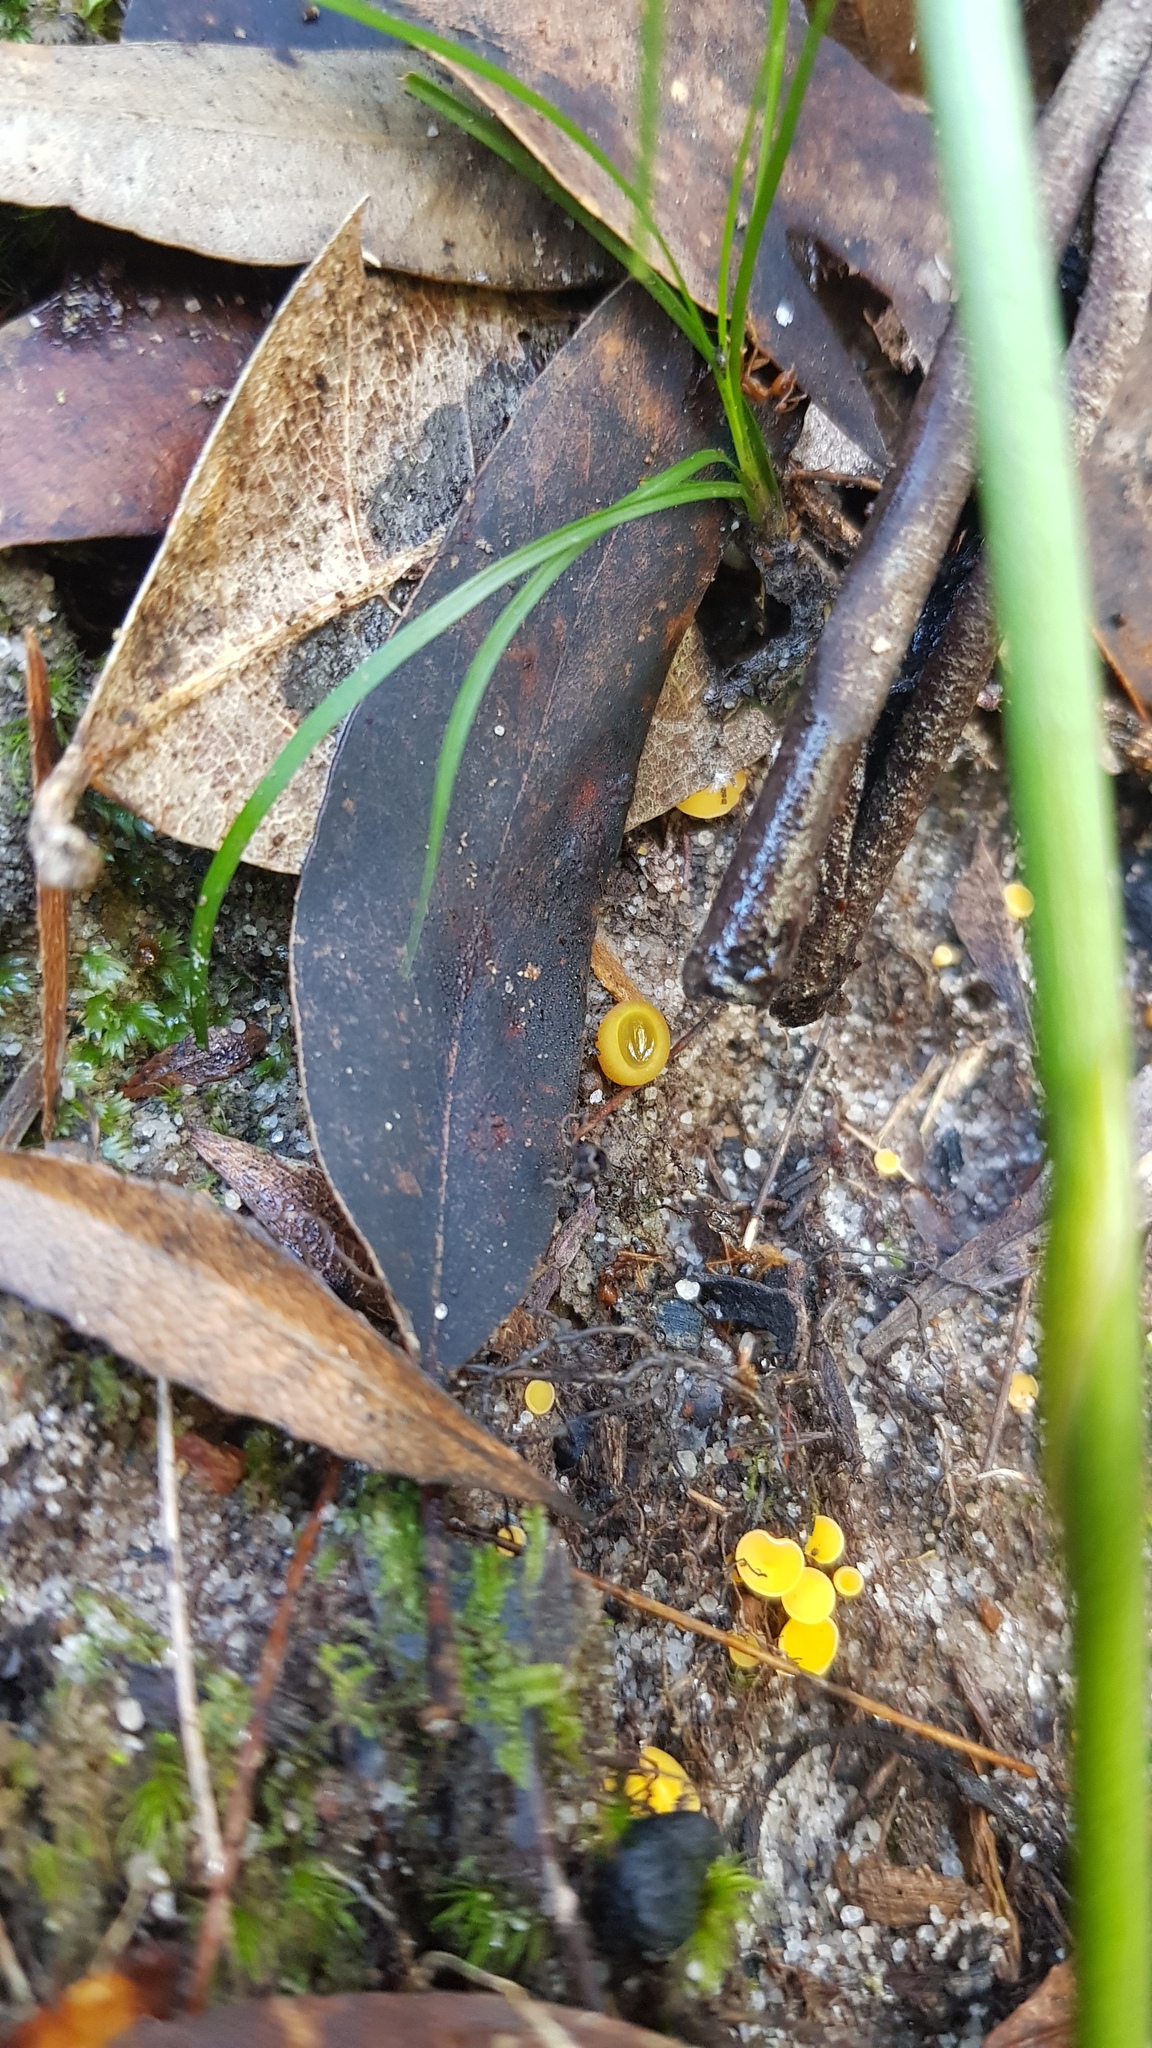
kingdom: Fungi
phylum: Ascomycota
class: Pezizomycetes
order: Pezizales
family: Pyronemataceae
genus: Aleurina
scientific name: Aleurina ferruginea
